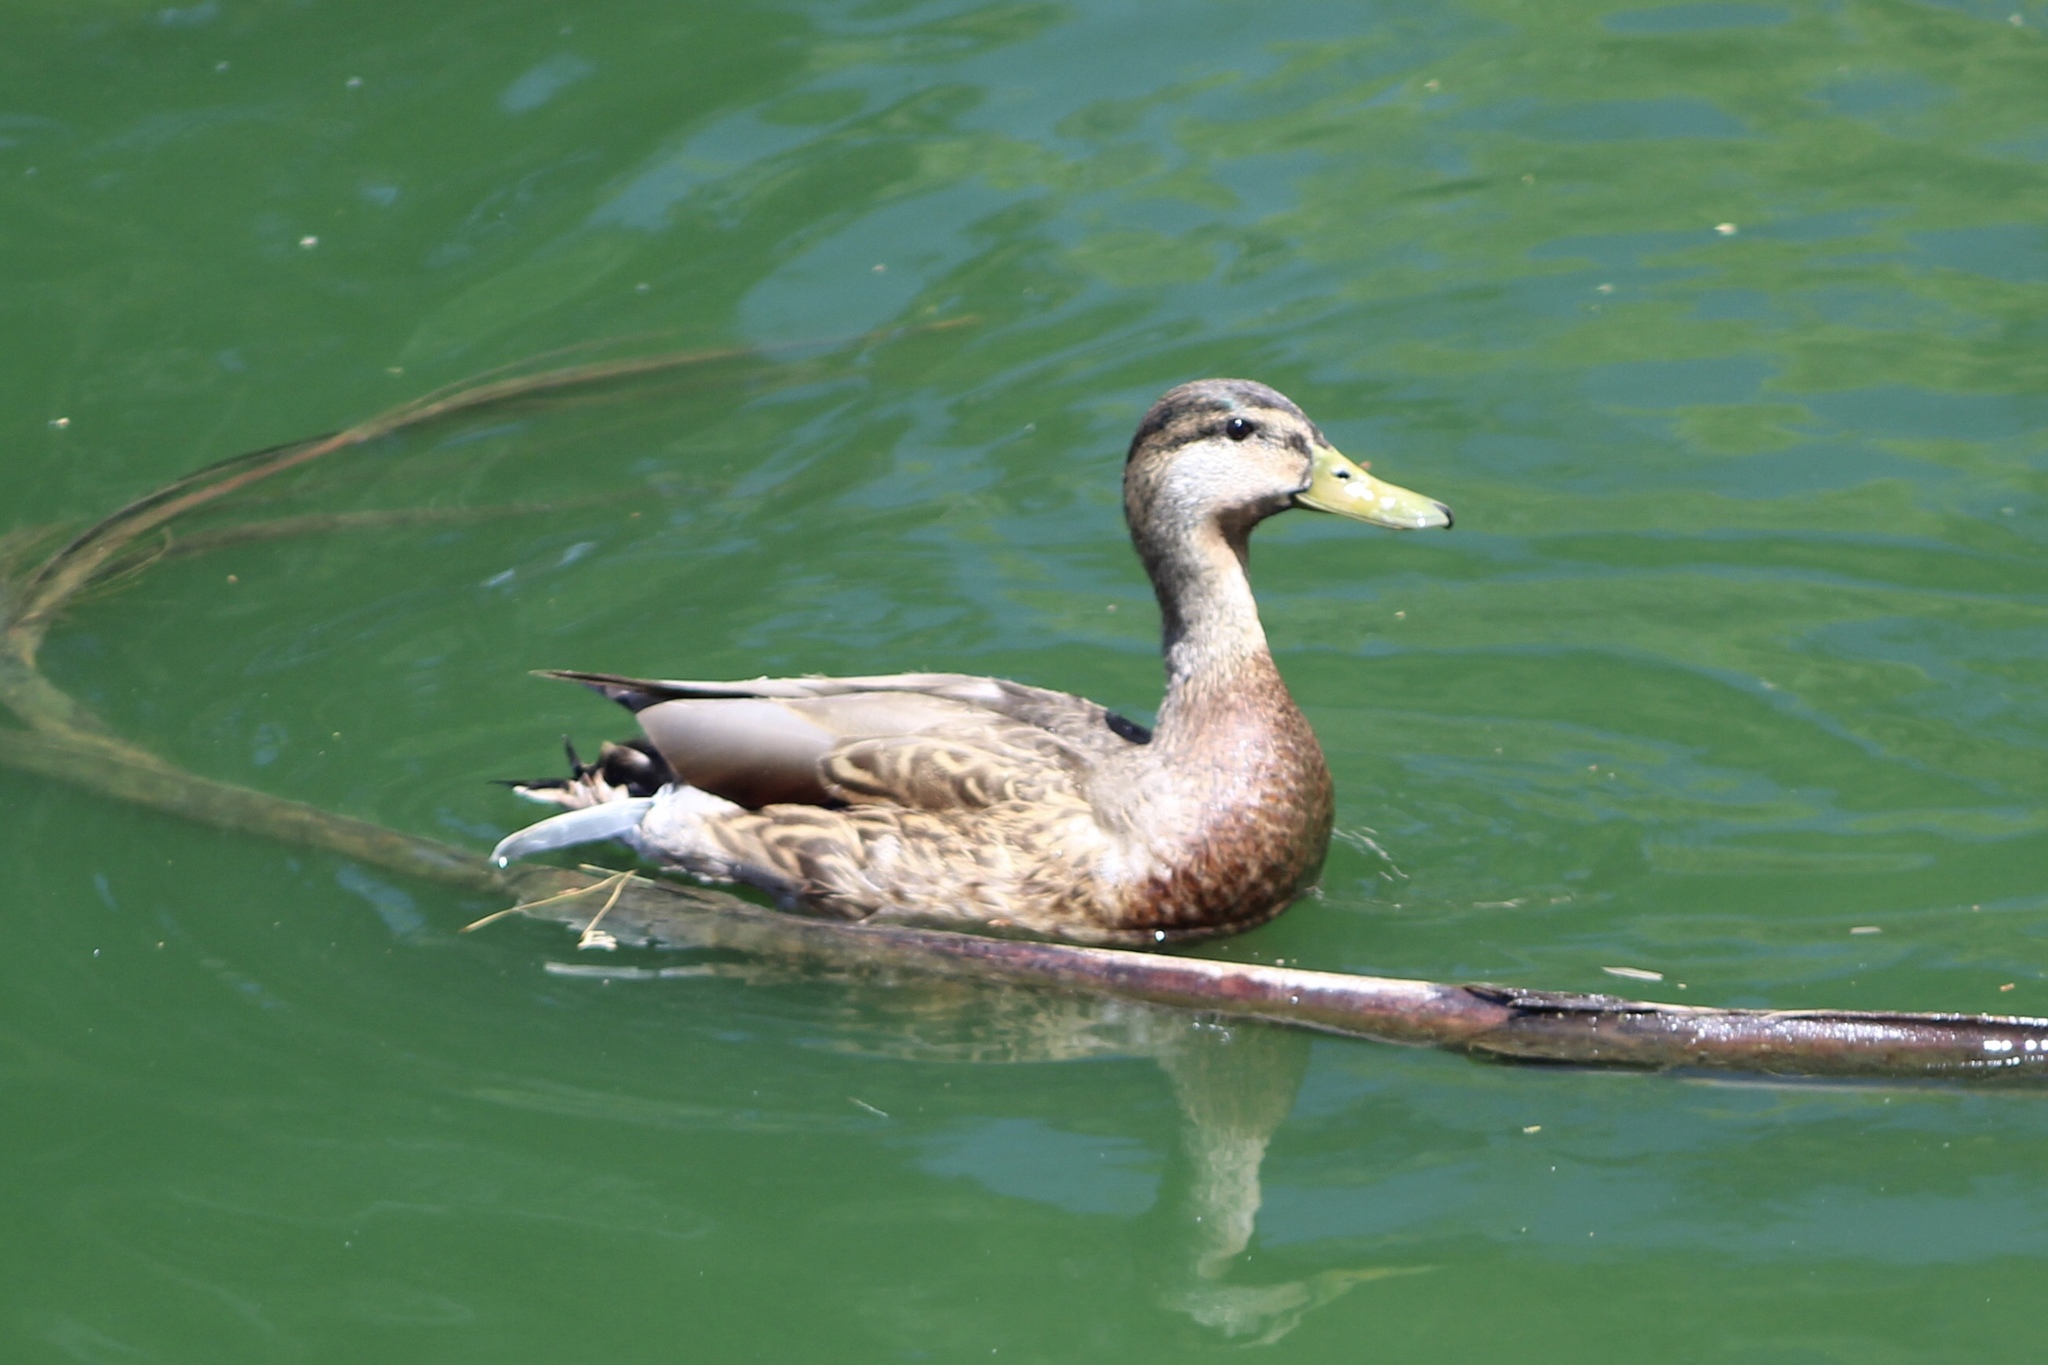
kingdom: Animalia
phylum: Chordata
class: Aves
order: Anseriformes
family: Anatidae
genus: Anas
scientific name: Anas
